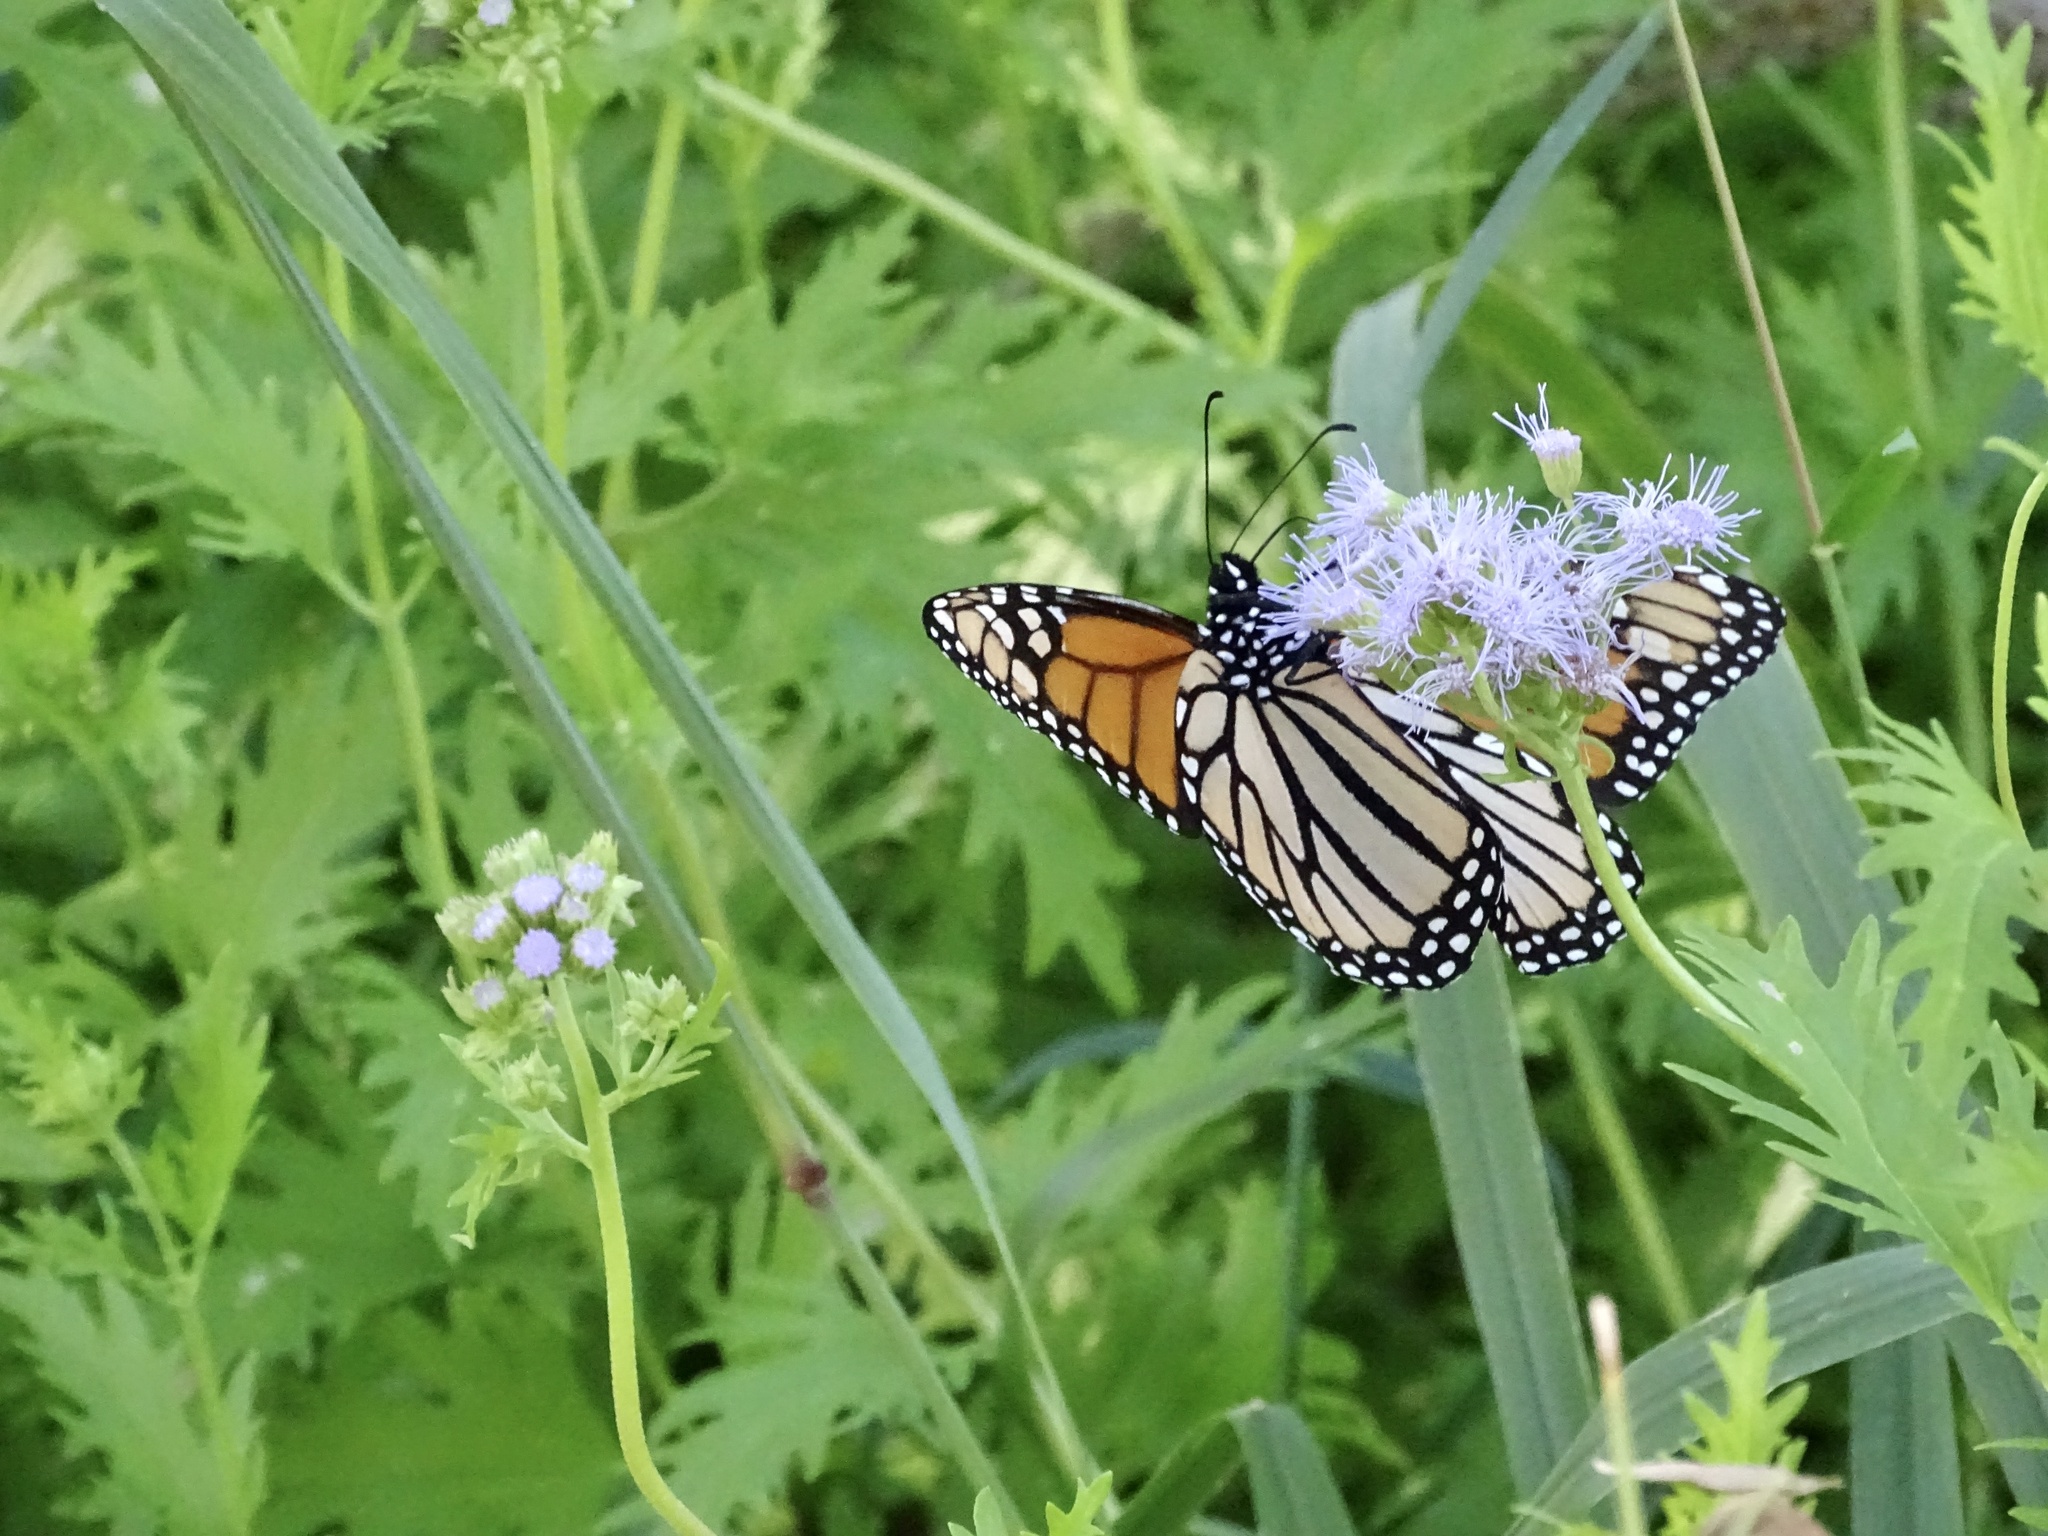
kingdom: Animalia
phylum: Arthropoda
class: Insecta
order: Lepidoptera
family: Nymphalidae
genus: Danaus
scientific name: Danaus plexippus
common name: Monarch
